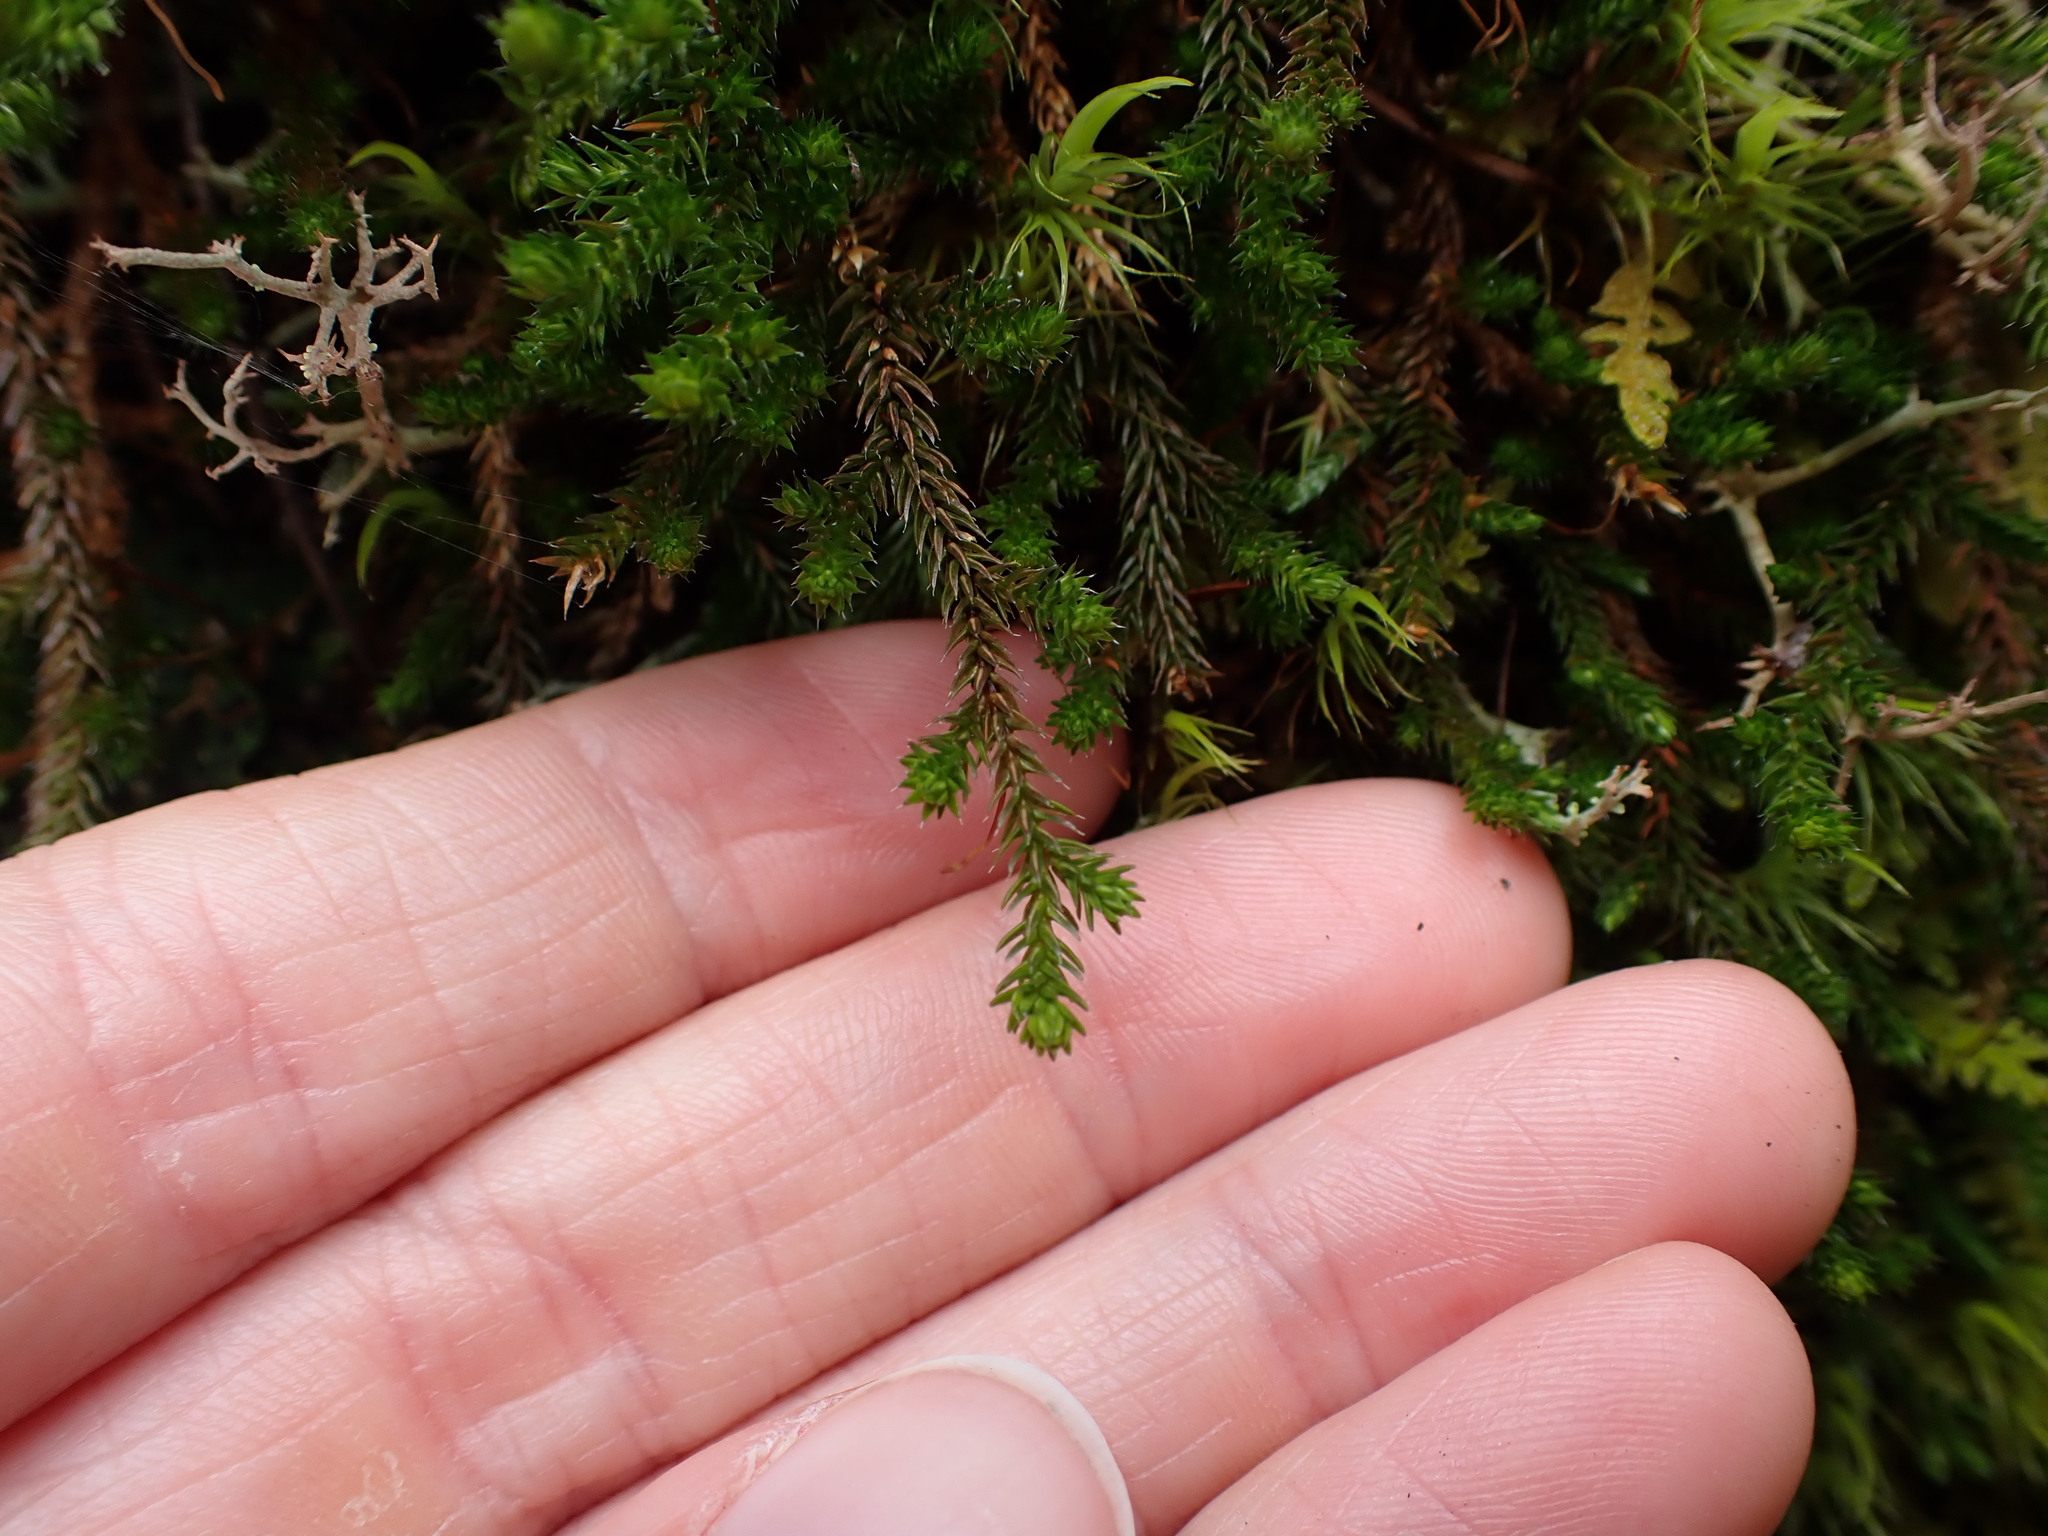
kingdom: Plantae
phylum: Tracheophyta
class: Lycopodiopsida
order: Selaginellales
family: Selaginellaceae
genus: Selaginella
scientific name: Selaginella wallacei
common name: Wallace's selaginella
